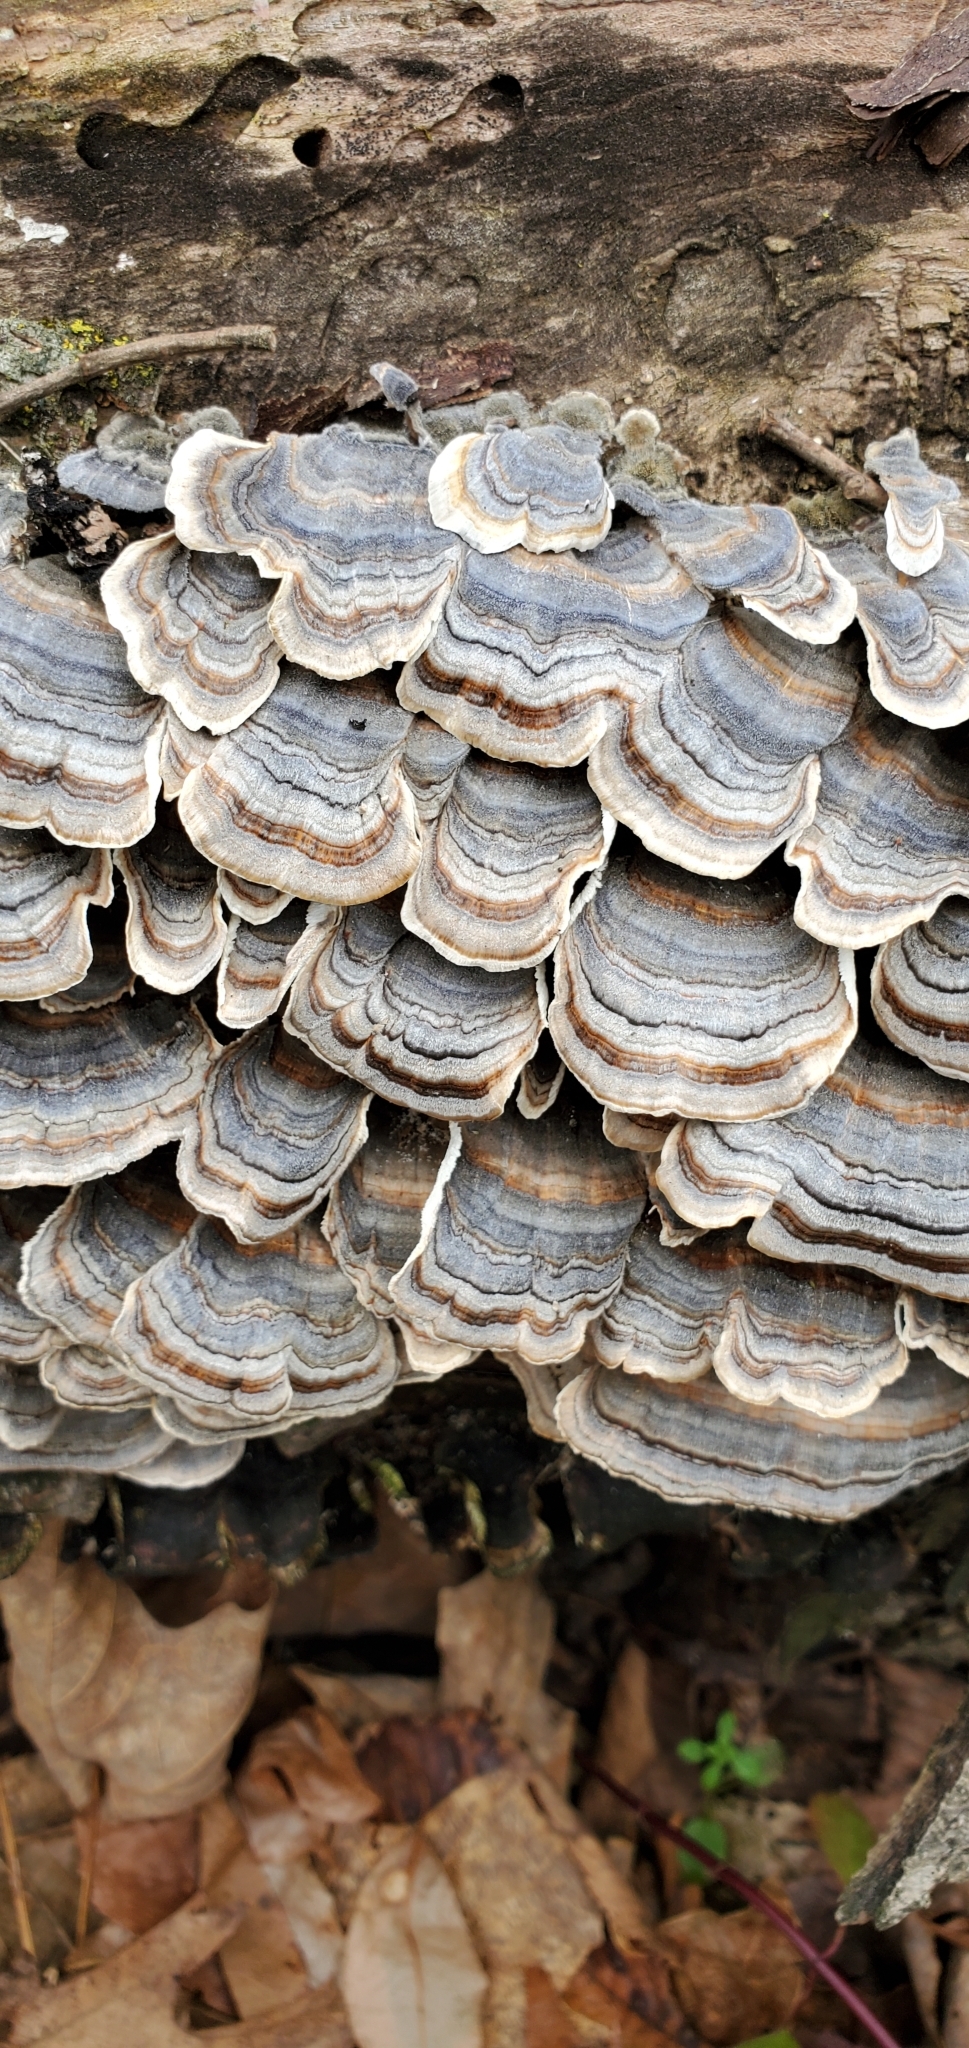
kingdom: Fungi
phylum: Basidiomycota
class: Agaricomycetes
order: Polyporales
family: Polyporaceae
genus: Trametes
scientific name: Trametes versicolor
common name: Turkeytail
